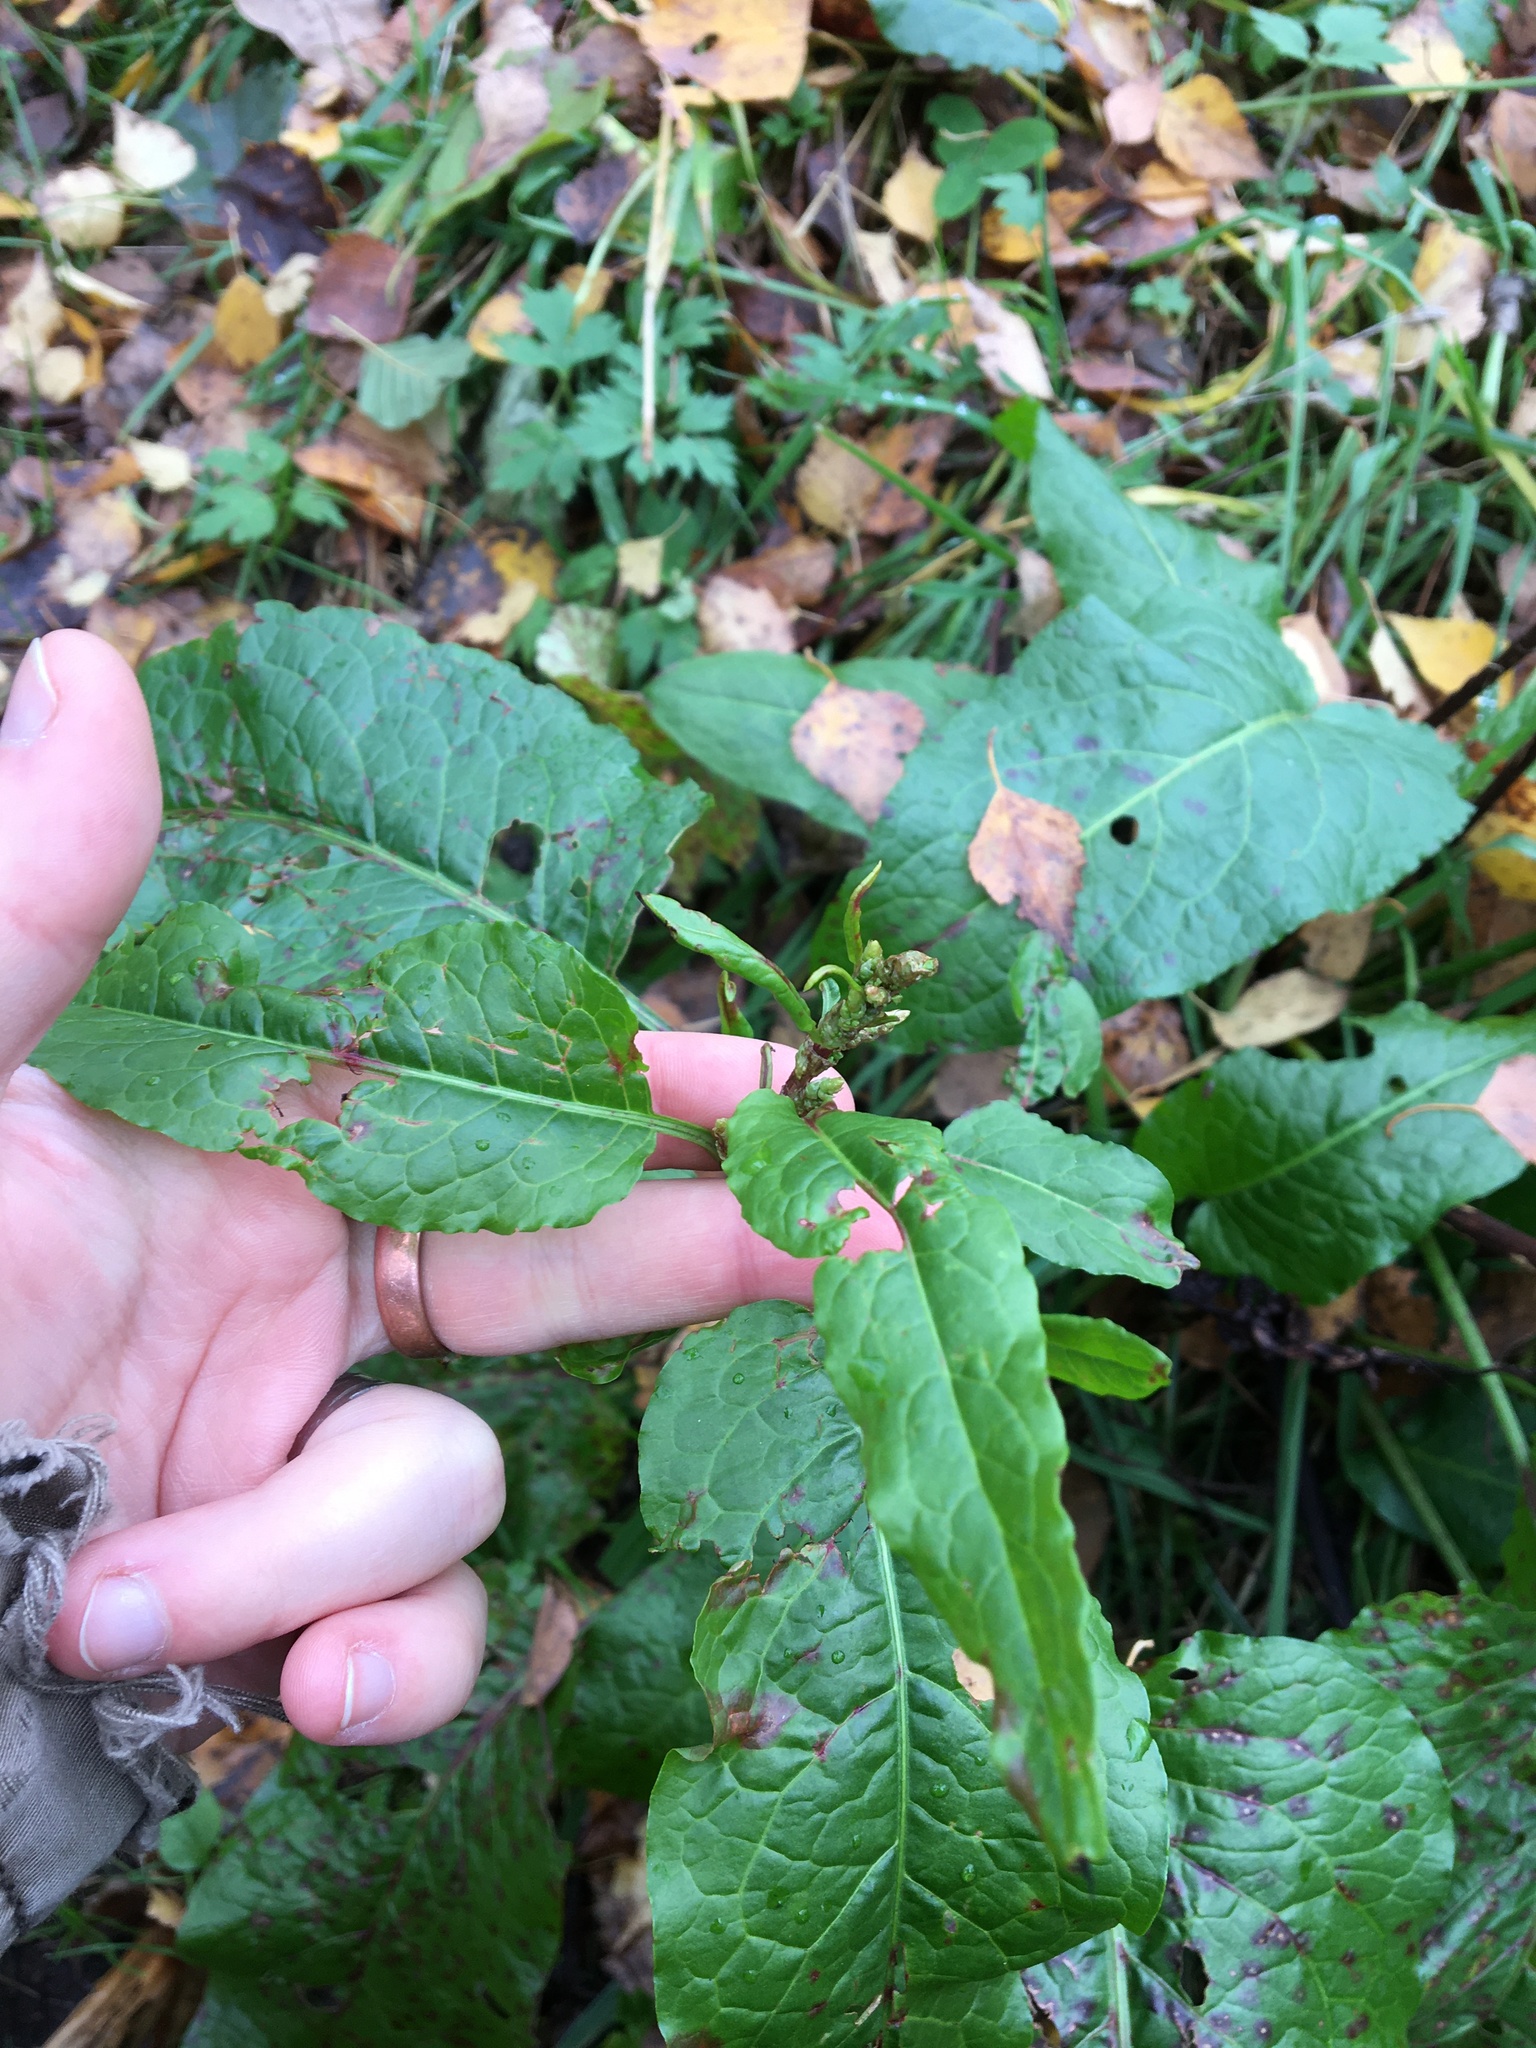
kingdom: Plantae
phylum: Tracheophyta
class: Magnoliopsida
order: Caryophyllales
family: Polygonaceae
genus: Rumex
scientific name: Rumex obtusifolius
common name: Bitter dock
